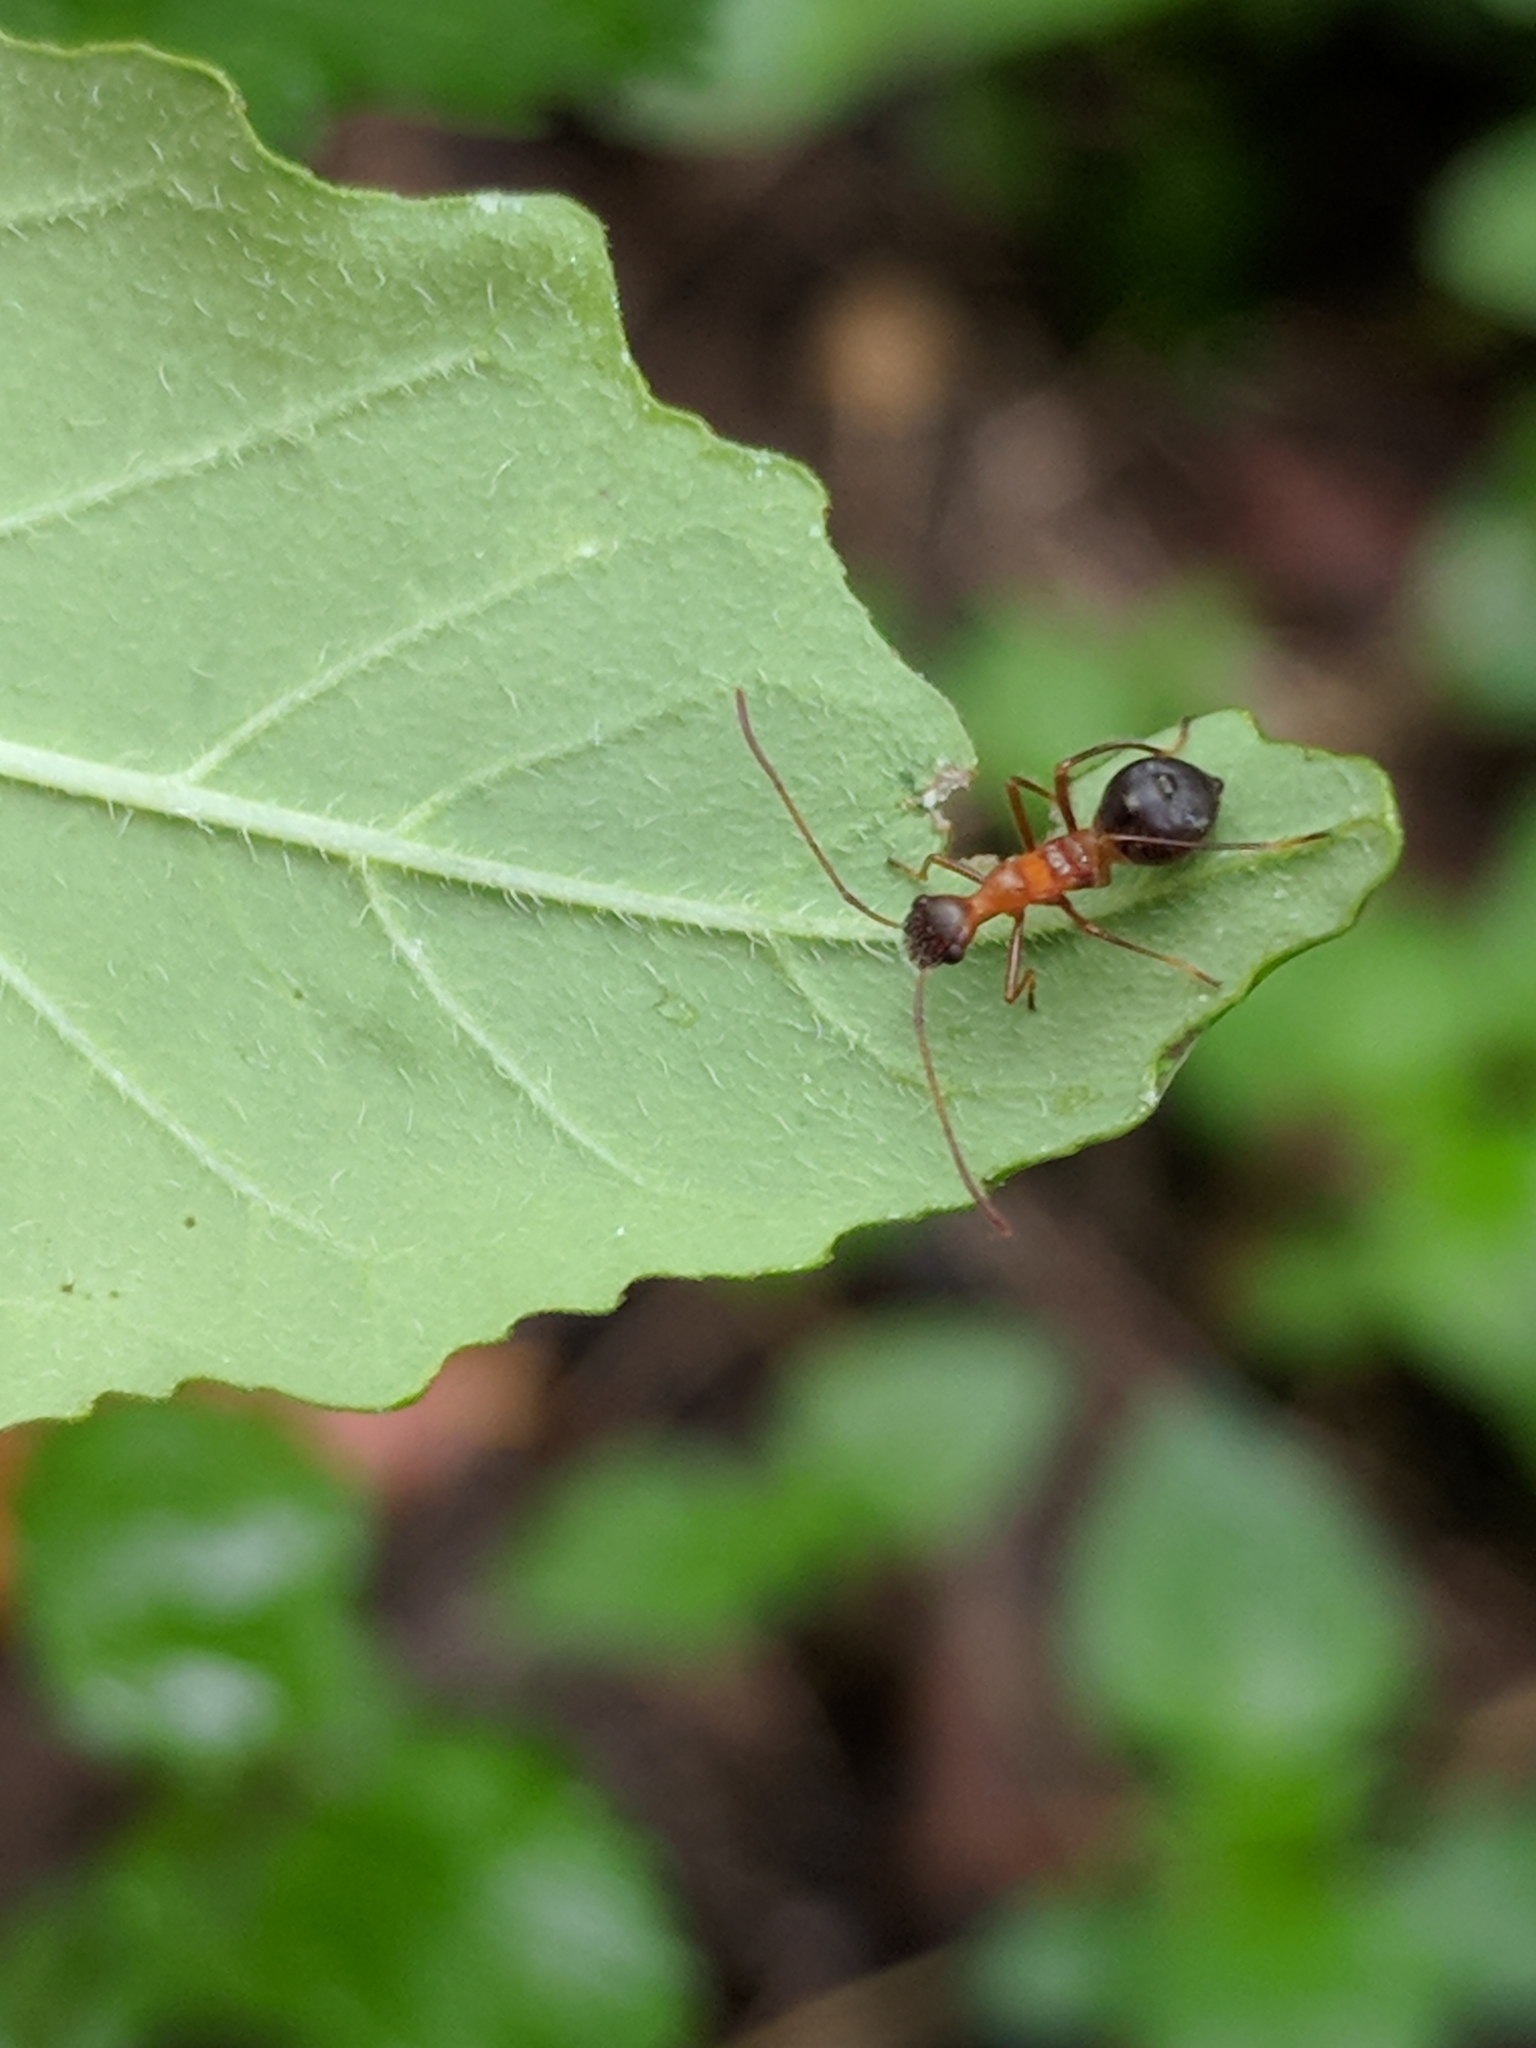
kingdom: Animalia
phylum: Arthropoda
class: Insecta
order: Hemiptera
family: Alydidae
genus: Hyalymenus
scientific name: Hyalymenus tarsatus
